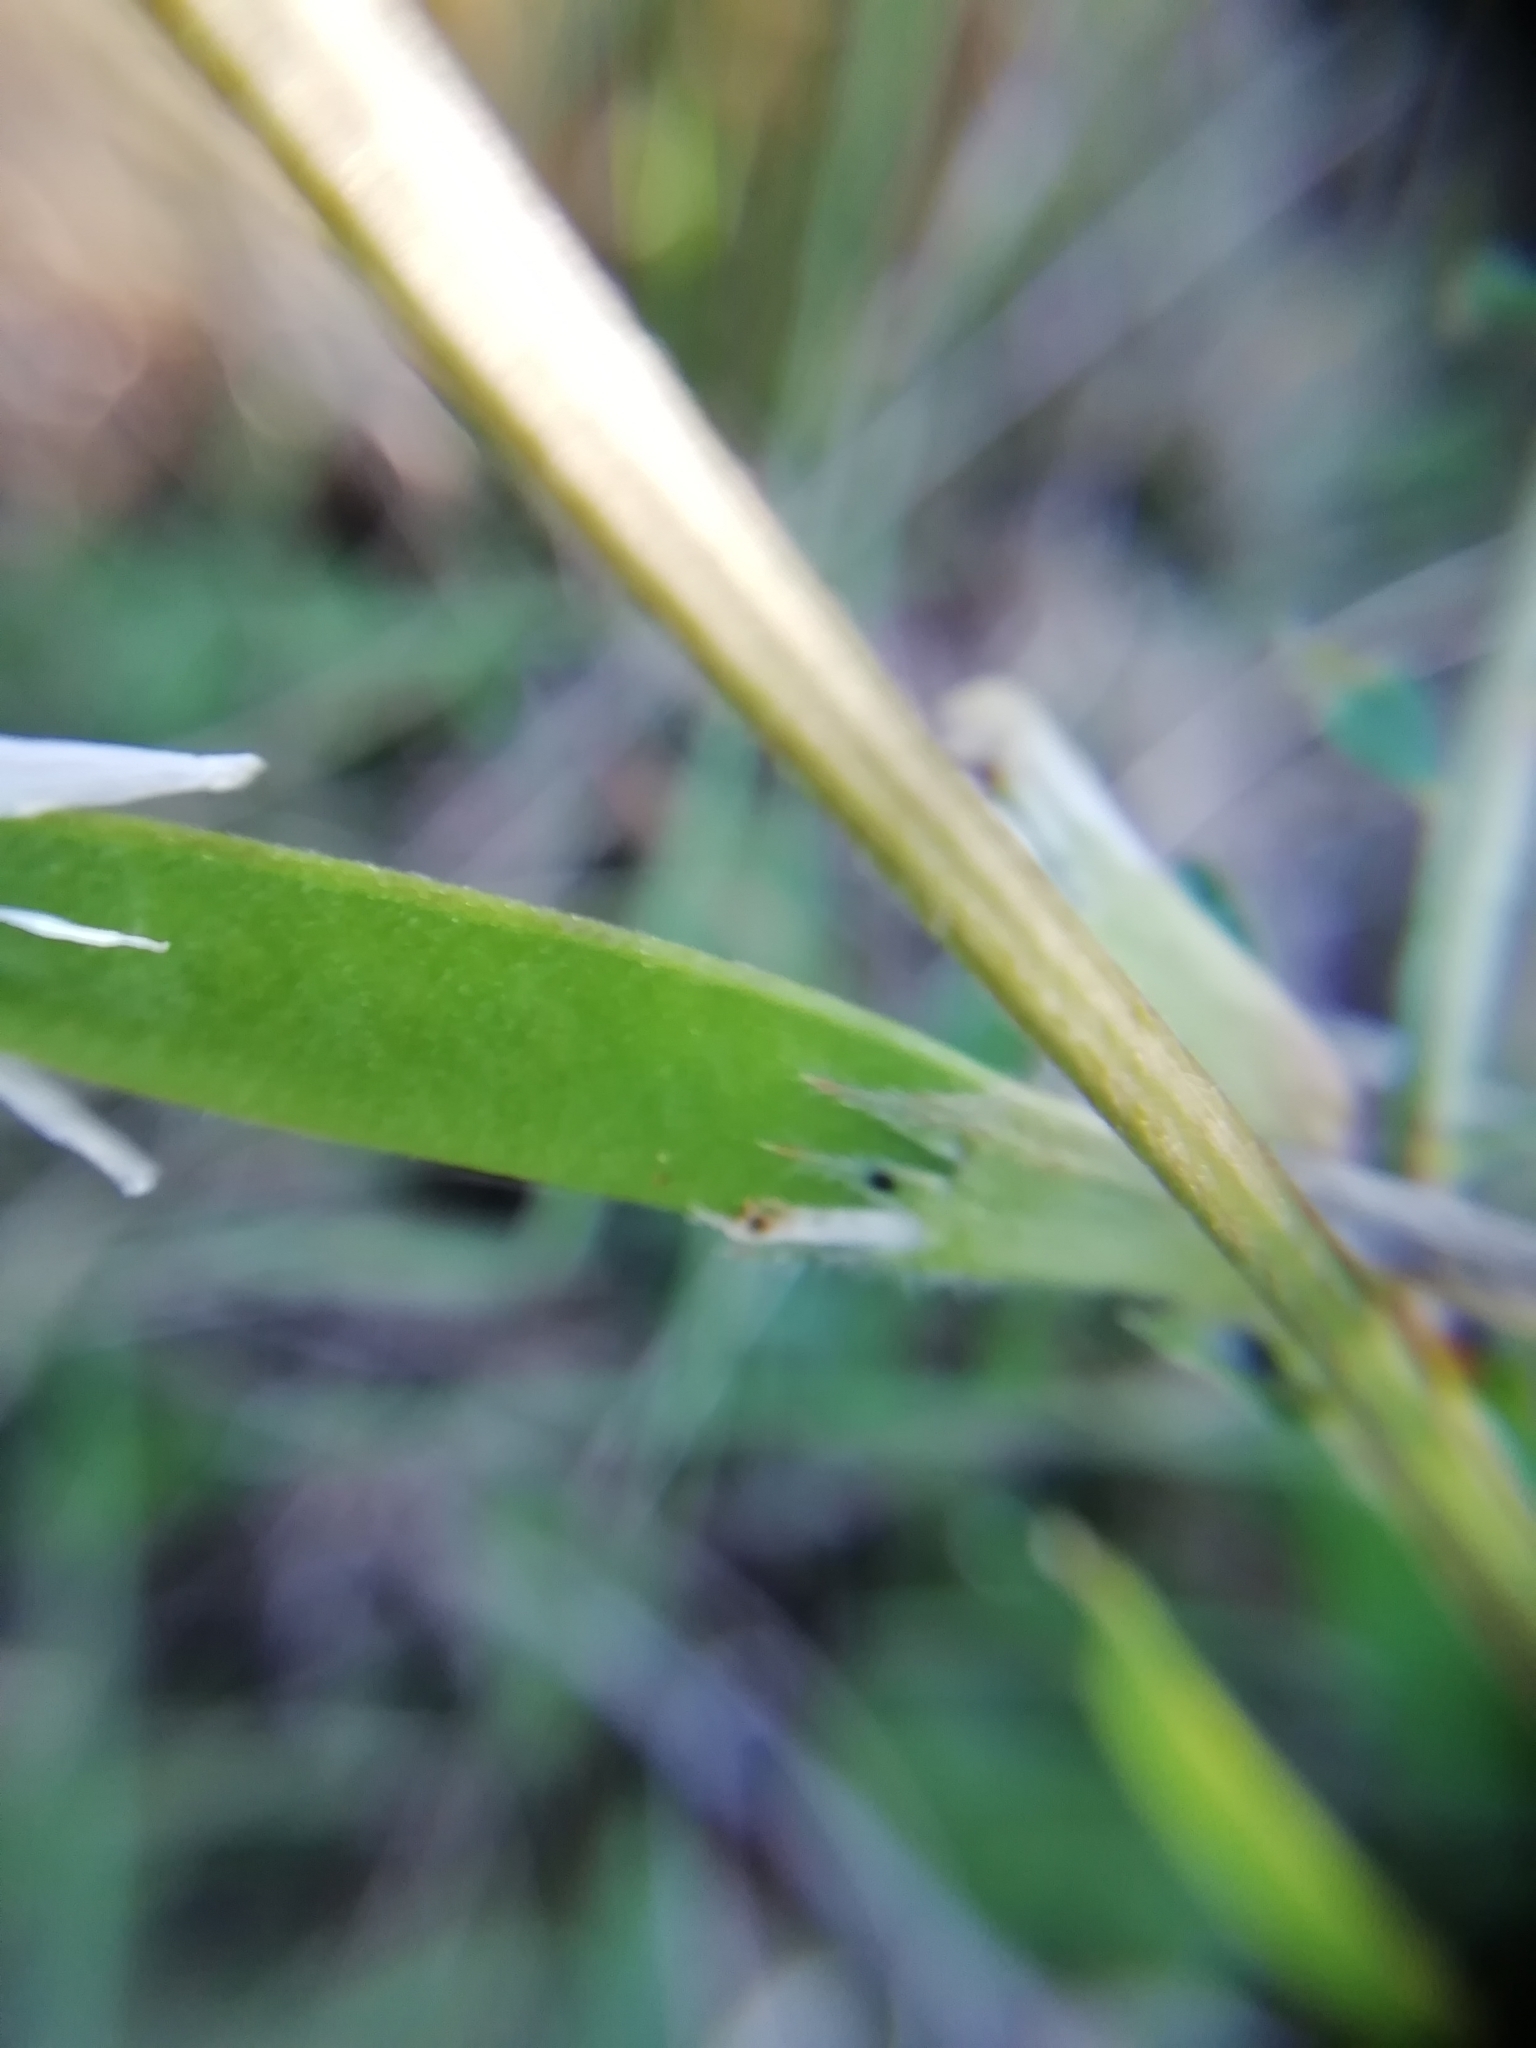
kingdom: Plantae
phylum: Tracheophyta
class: Magnoliopsida
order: Fabales
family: Fabaceae
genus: Vicia
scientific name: Vicia sativa
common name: Garden vetch
